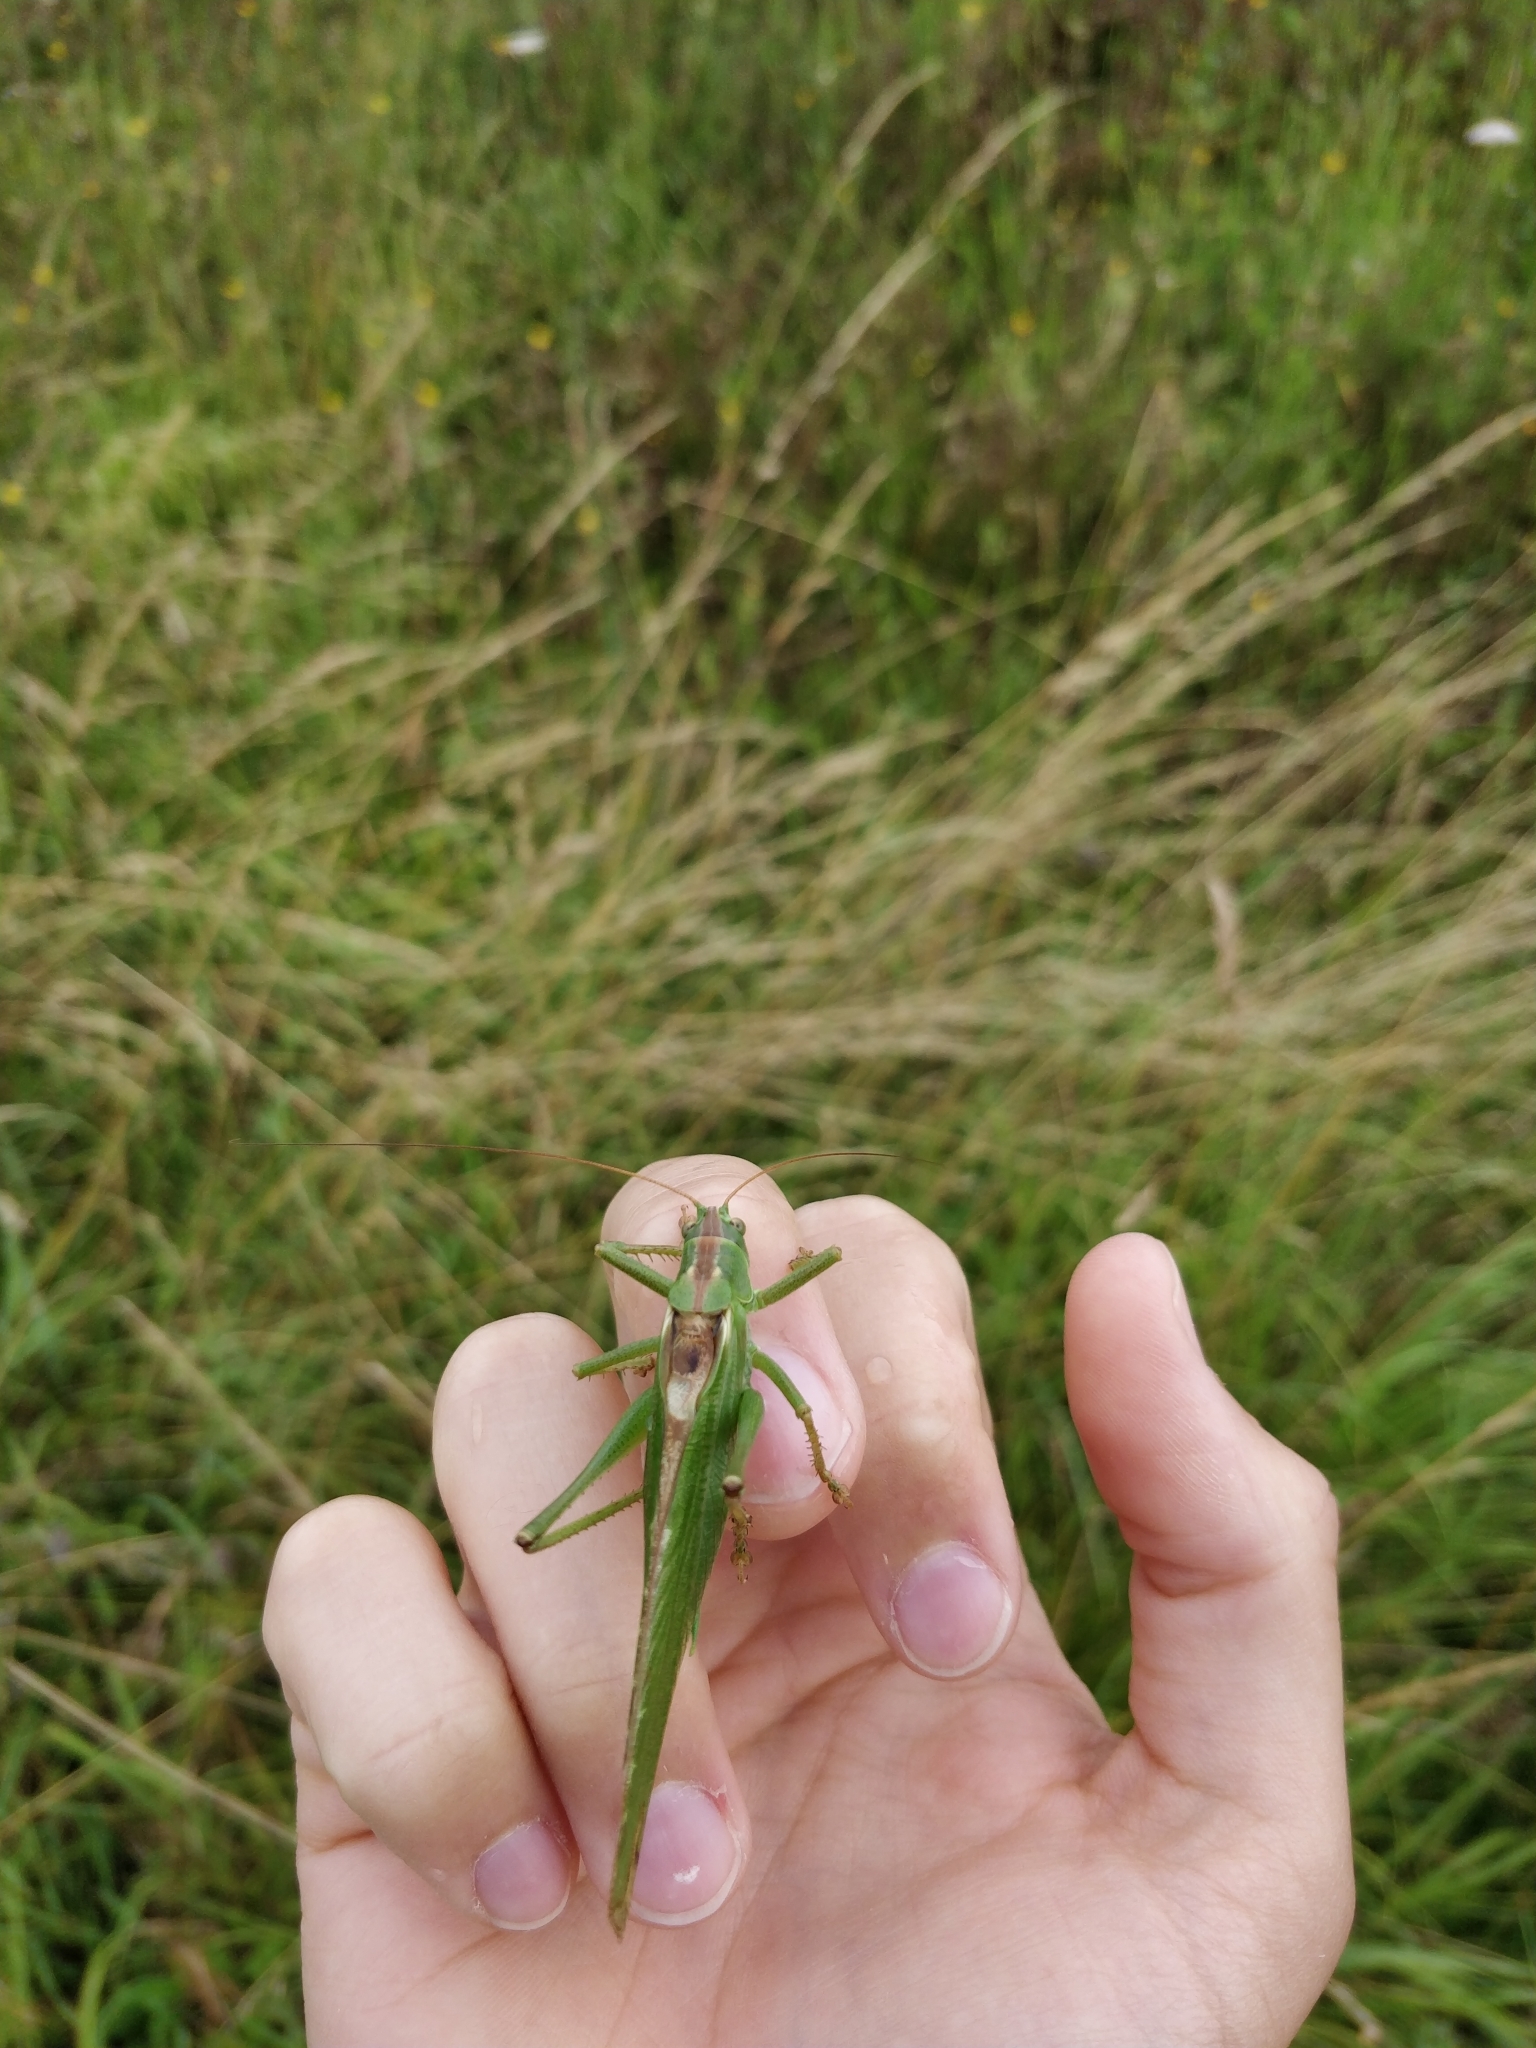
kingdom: Animalia
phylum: Arthropoda
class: Insecta
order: Orthoptera
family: Tettigoniidae
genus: Tettigonia
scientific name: Tettigonia viridissima
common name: Great green bush-cricket
